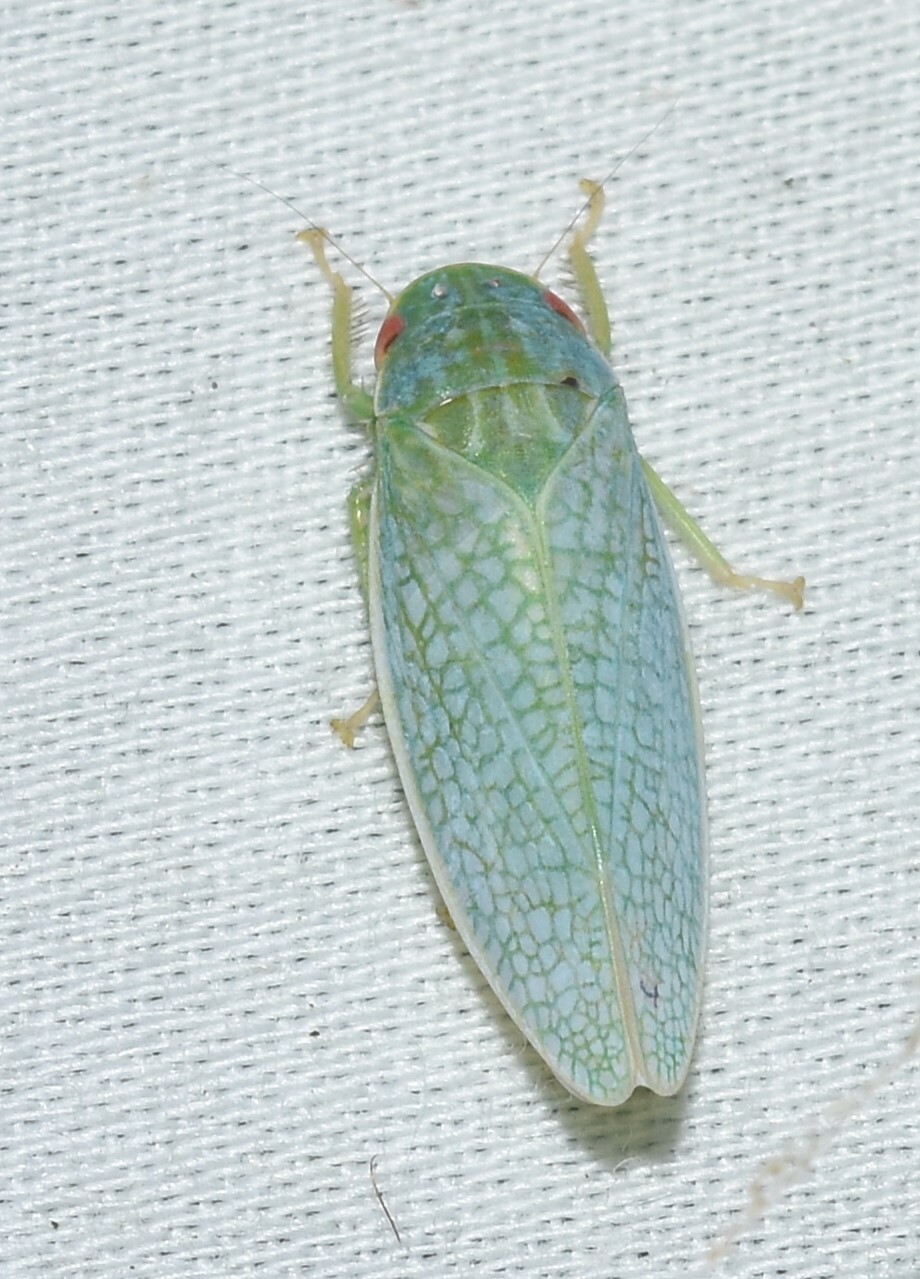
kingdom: Animalia
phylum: Arthropoda
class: Insecta
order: Hemiptera
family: Cicadellidae
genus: Gyponana
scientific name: Gyponana procera
